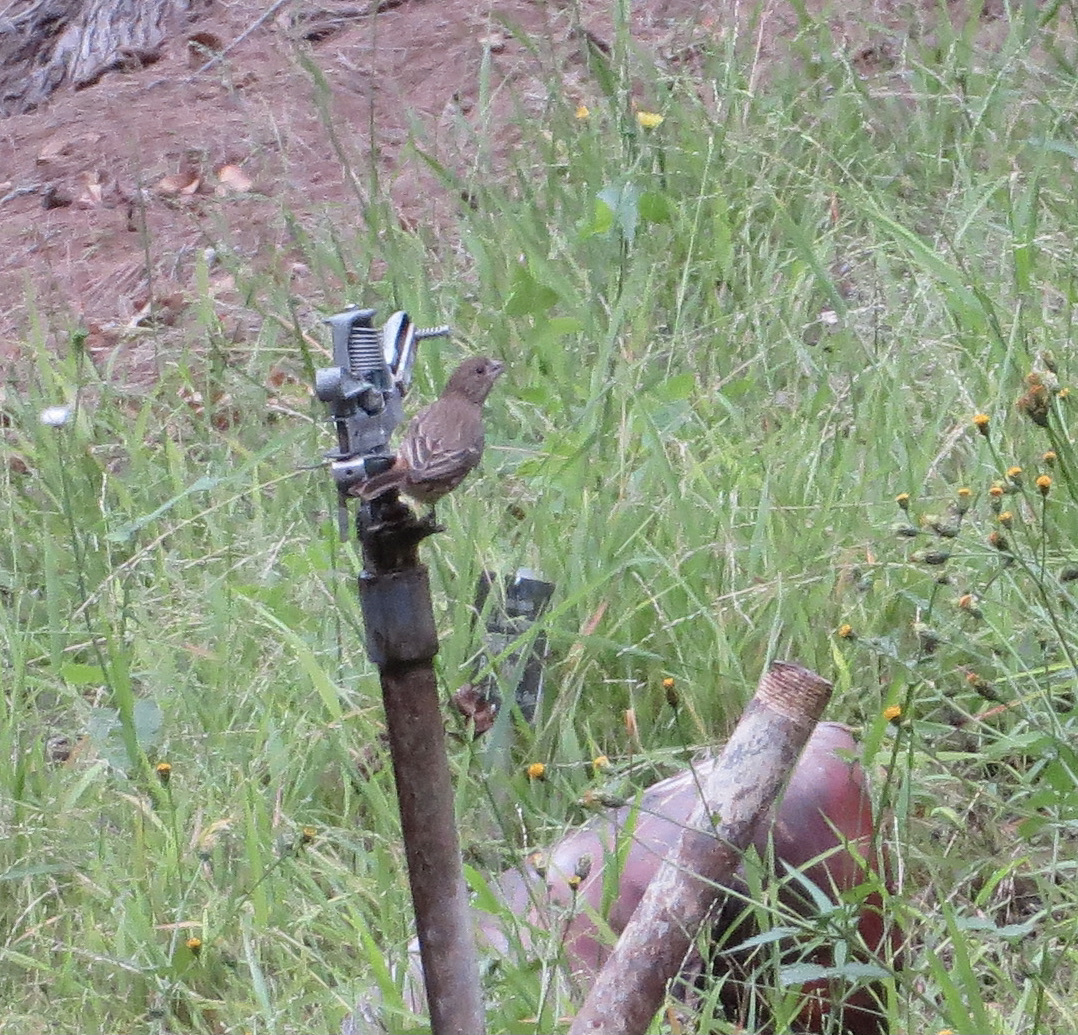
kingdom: Animalia
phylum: Chordata
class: Aves
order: Passeriformes
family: Fringillidae
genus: Haemorhous
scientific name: Haemorhous mexicanus
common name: House finch
